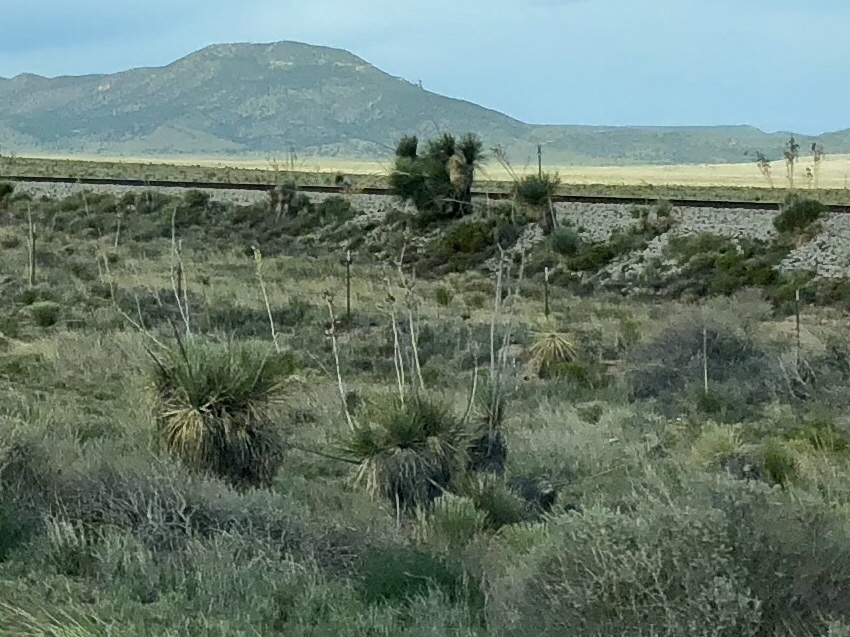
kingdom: Plantae
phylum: Tracheophyta
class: Liliopsida
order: Asparagales
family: Asparagaceae
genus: Yucca
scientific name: Yucca elata
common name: Palmella
